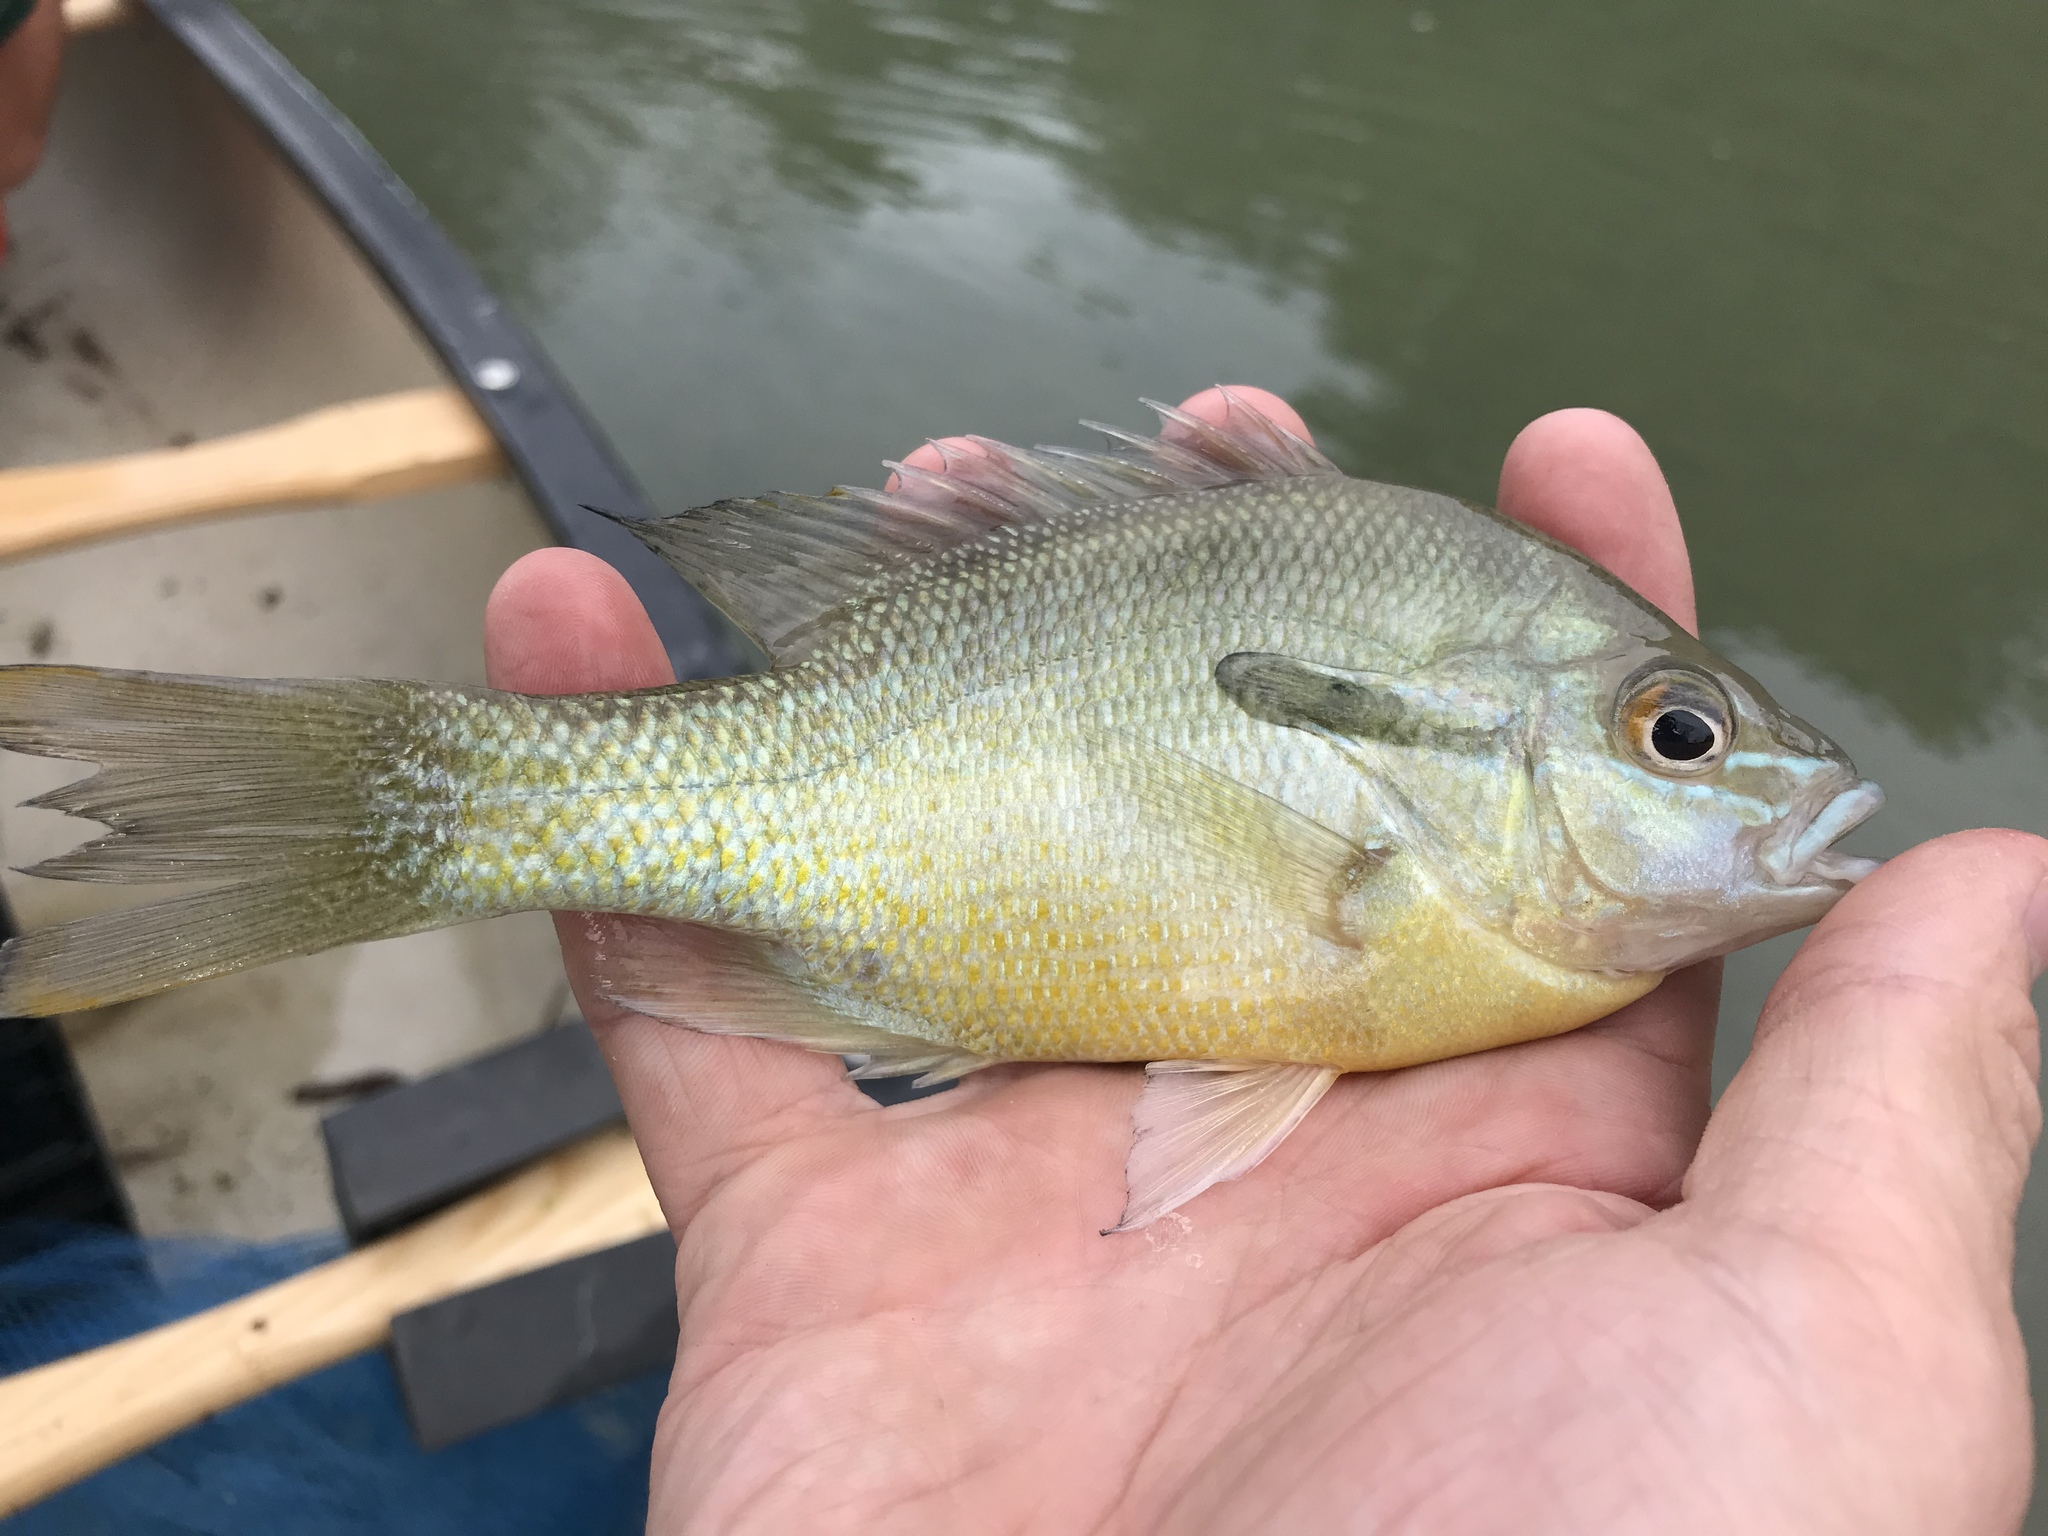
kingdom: Animalia
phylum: Chordata
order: Perciformes
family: Centrarchidae
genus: Lepomis
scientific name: Lepomis auritus
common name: Redbreast sunfish
